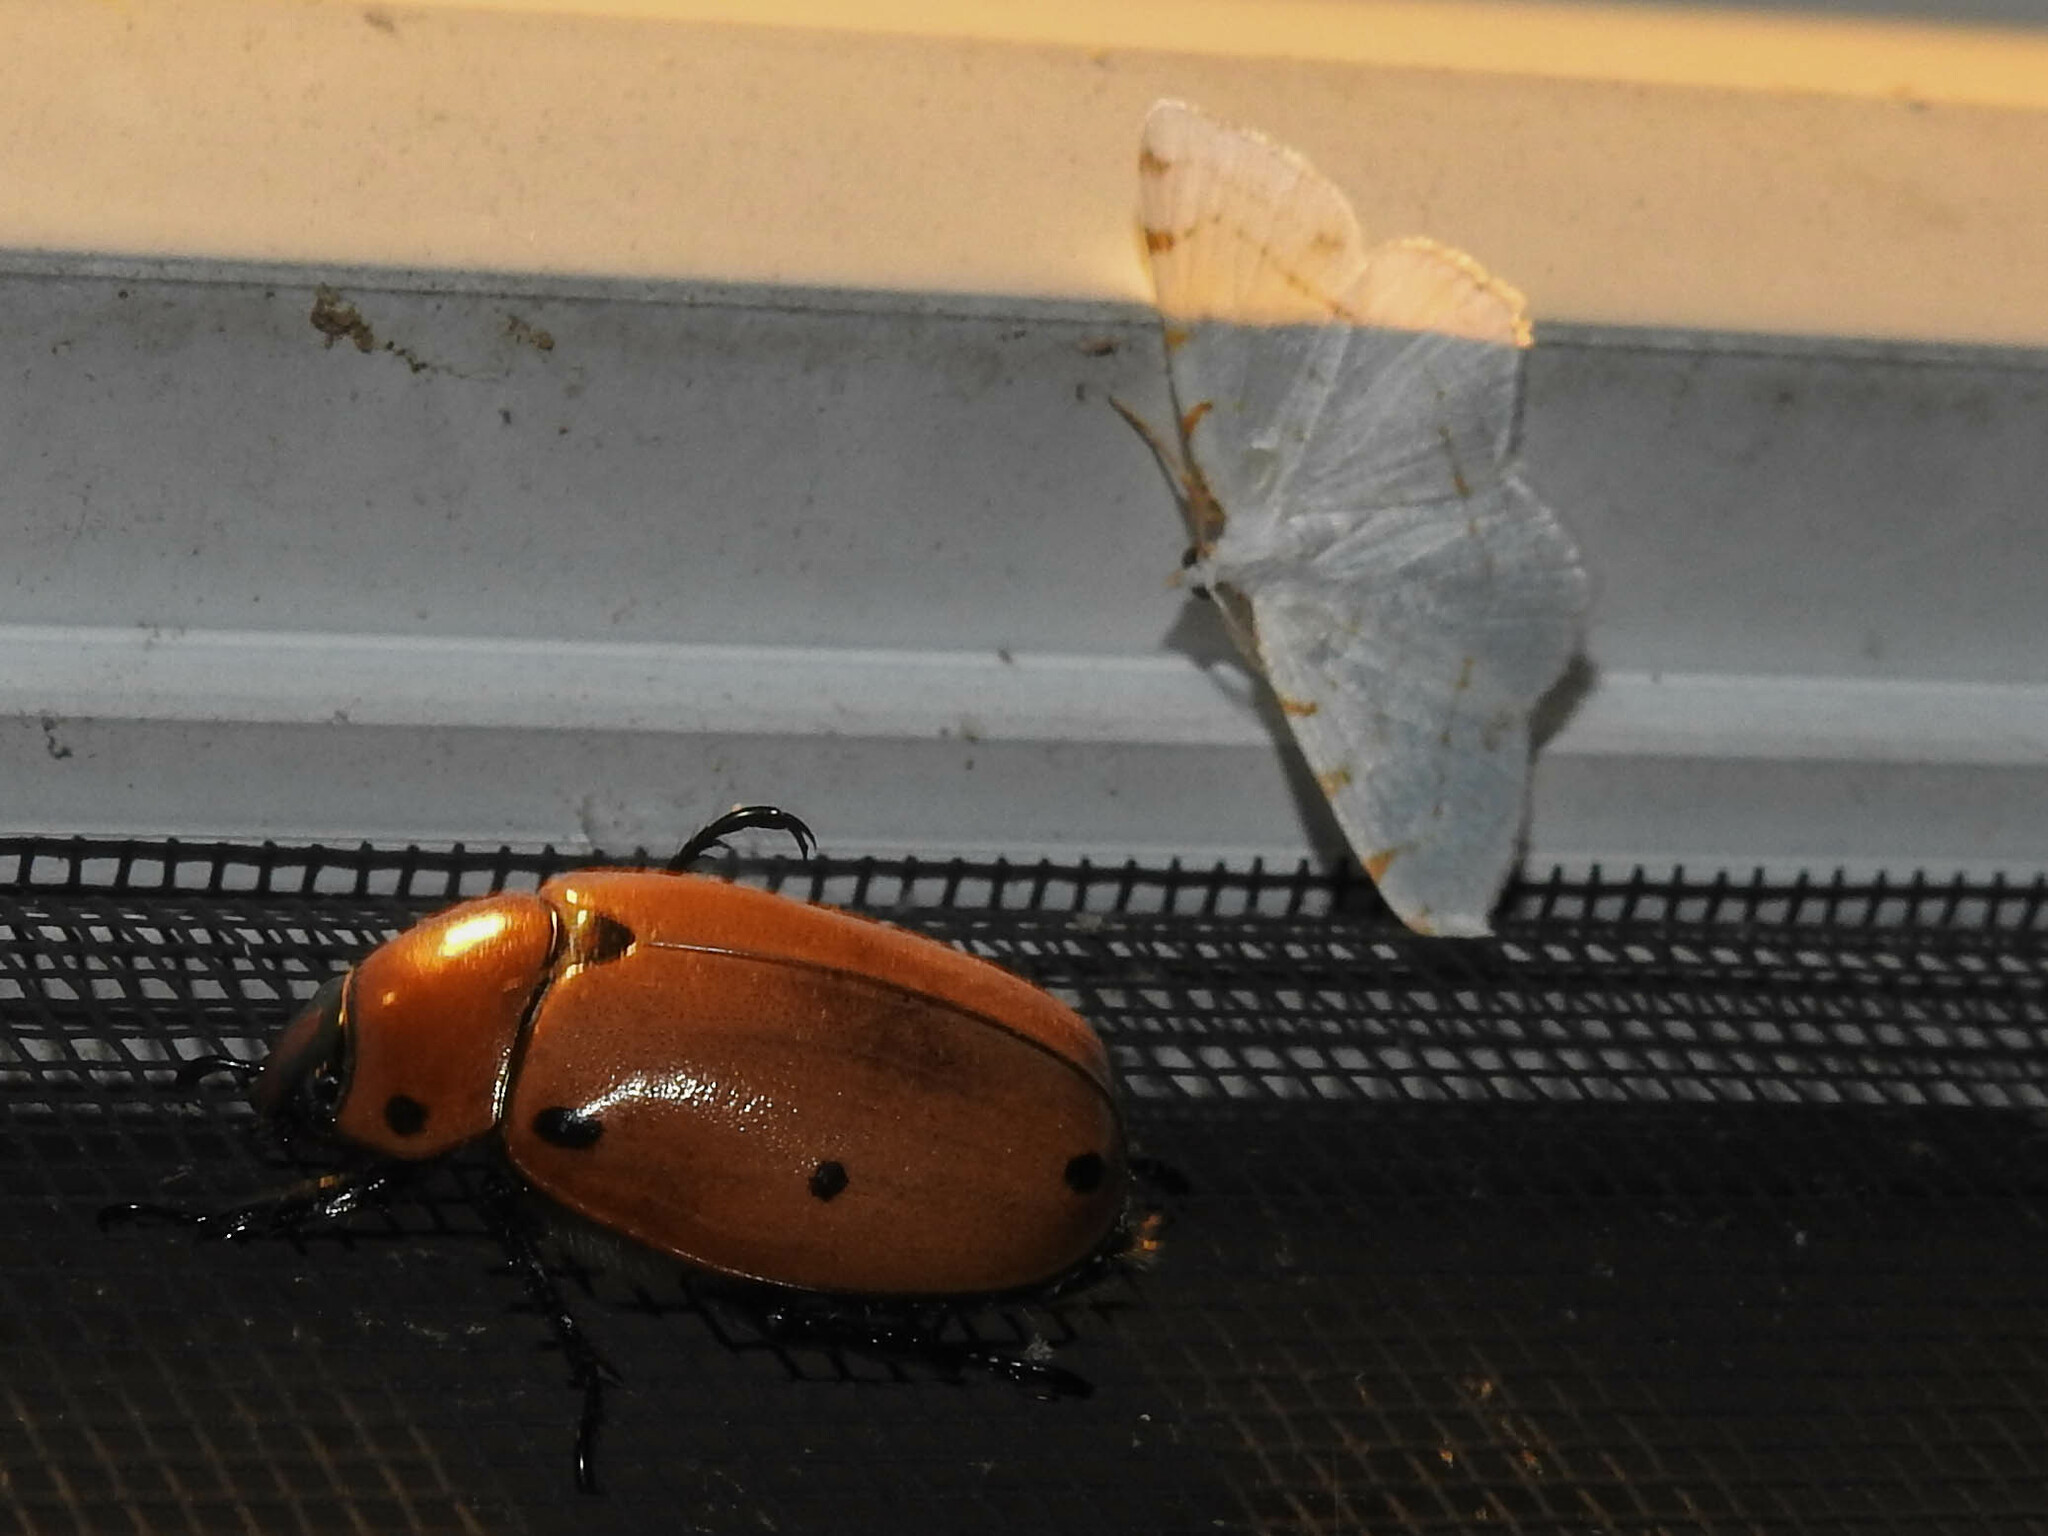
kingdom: Animalia
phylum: Arthropoda
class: Insecta
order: Coleoptera
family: Scarabaeidae
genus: Pelidnota
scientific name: Pelidnota punctata
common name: Grapevine beetle
